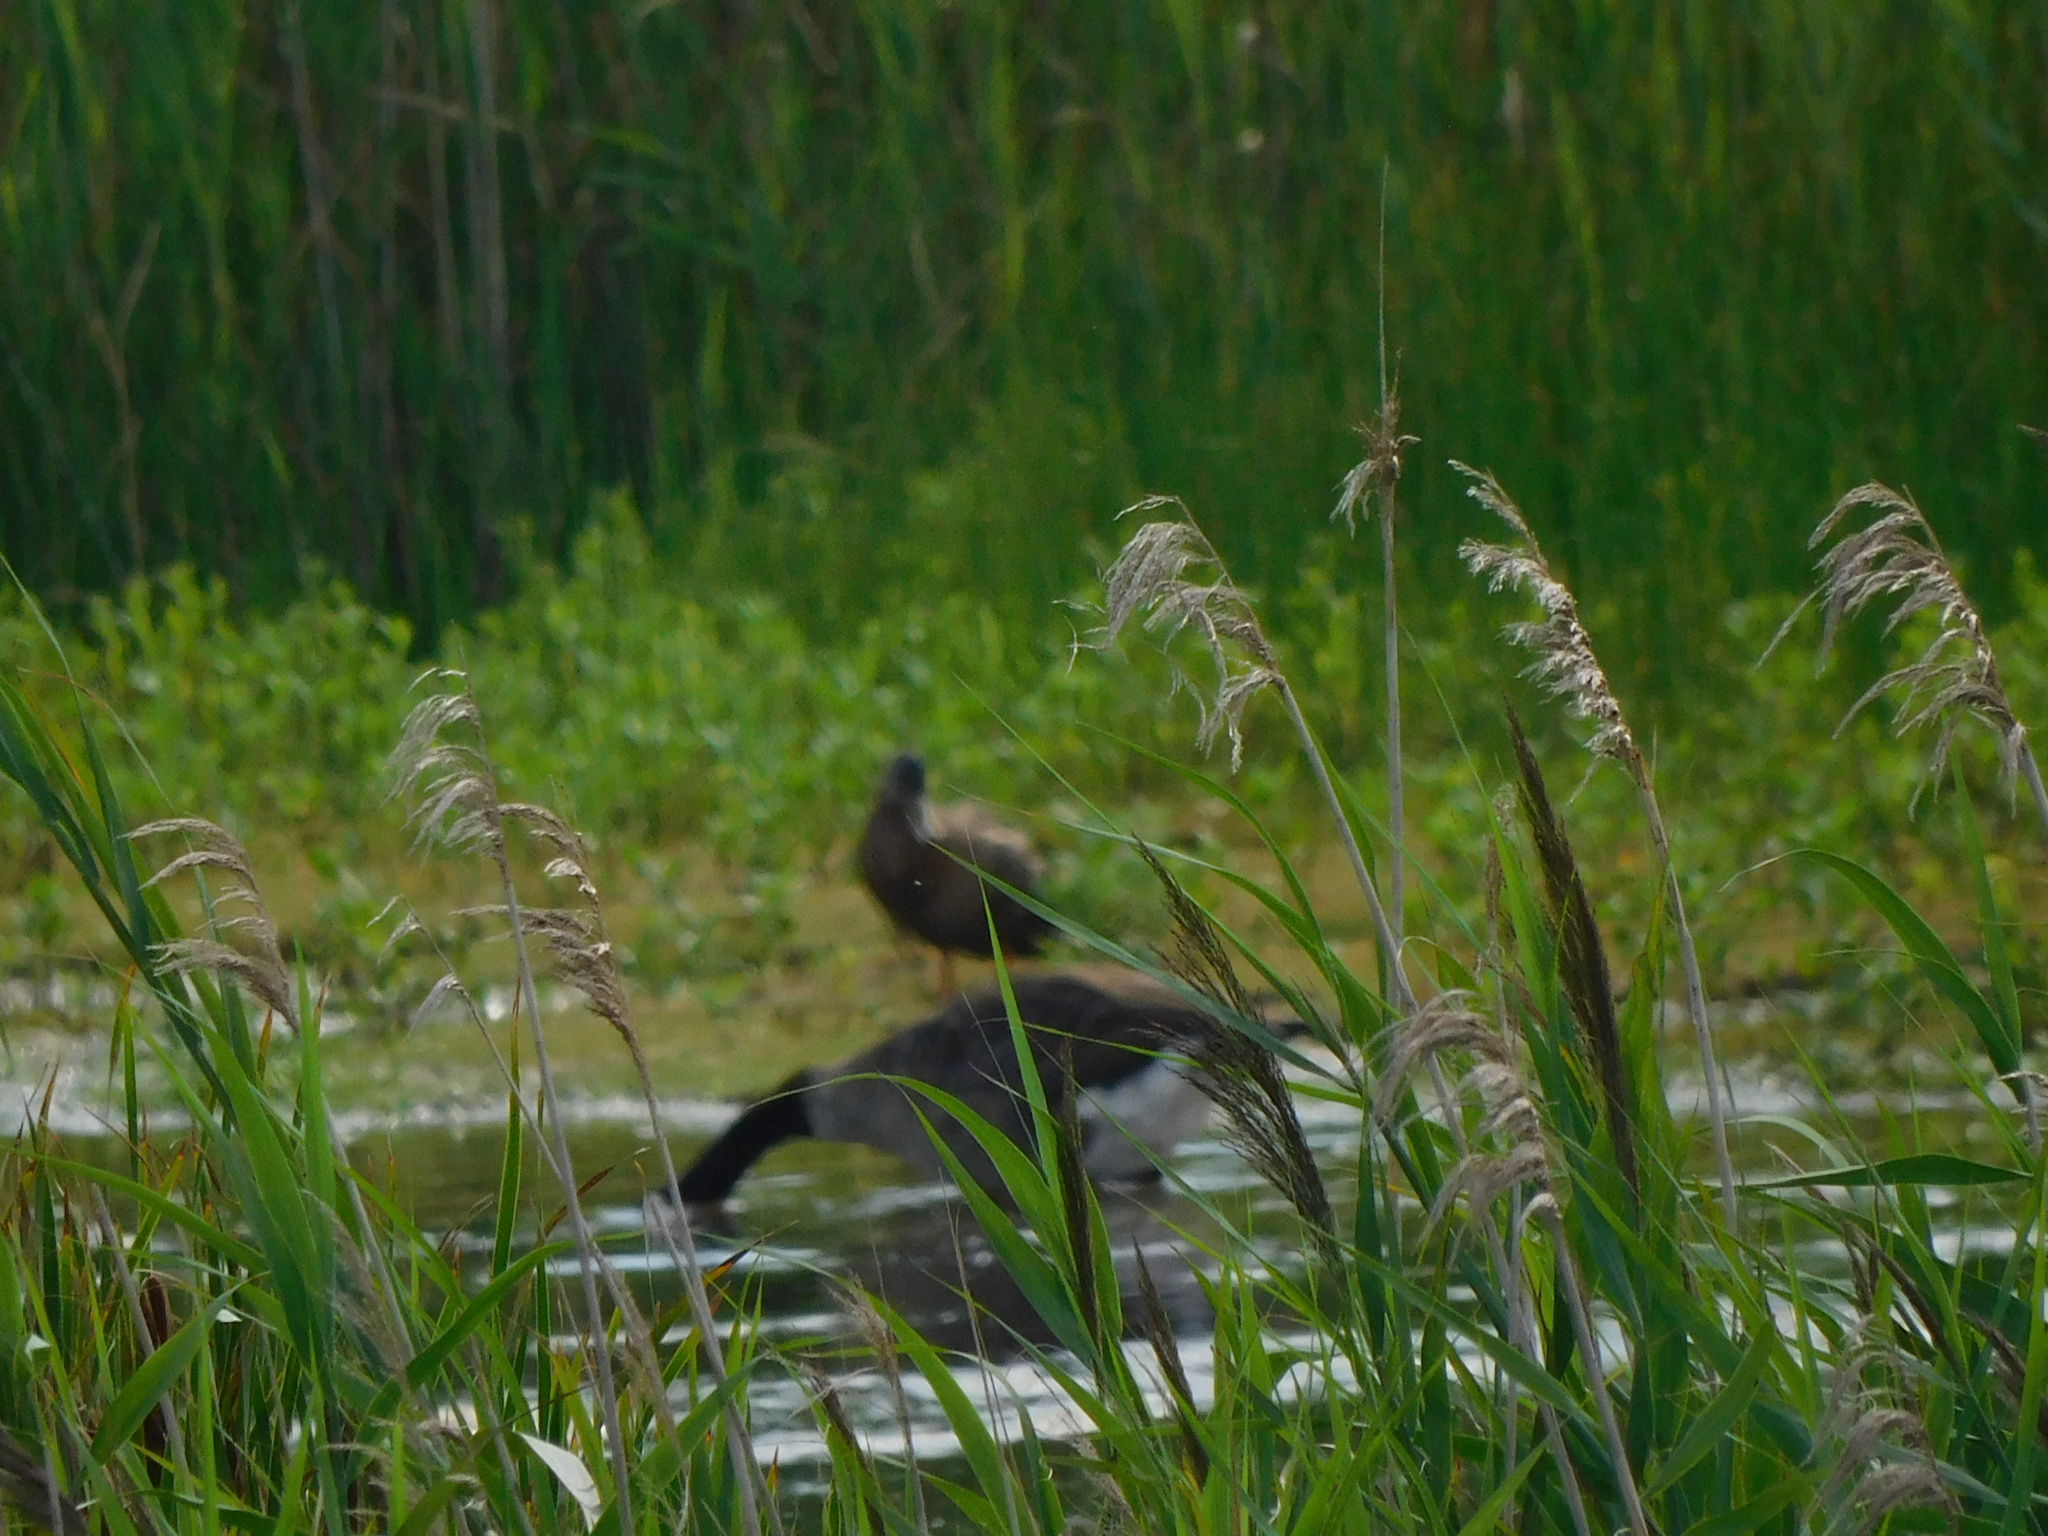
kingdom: Animalia
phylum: Chordata
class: Aves
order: Anseriformes
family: Anatidae
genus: Branta
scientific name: Branta canadensis
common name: Canada goose
